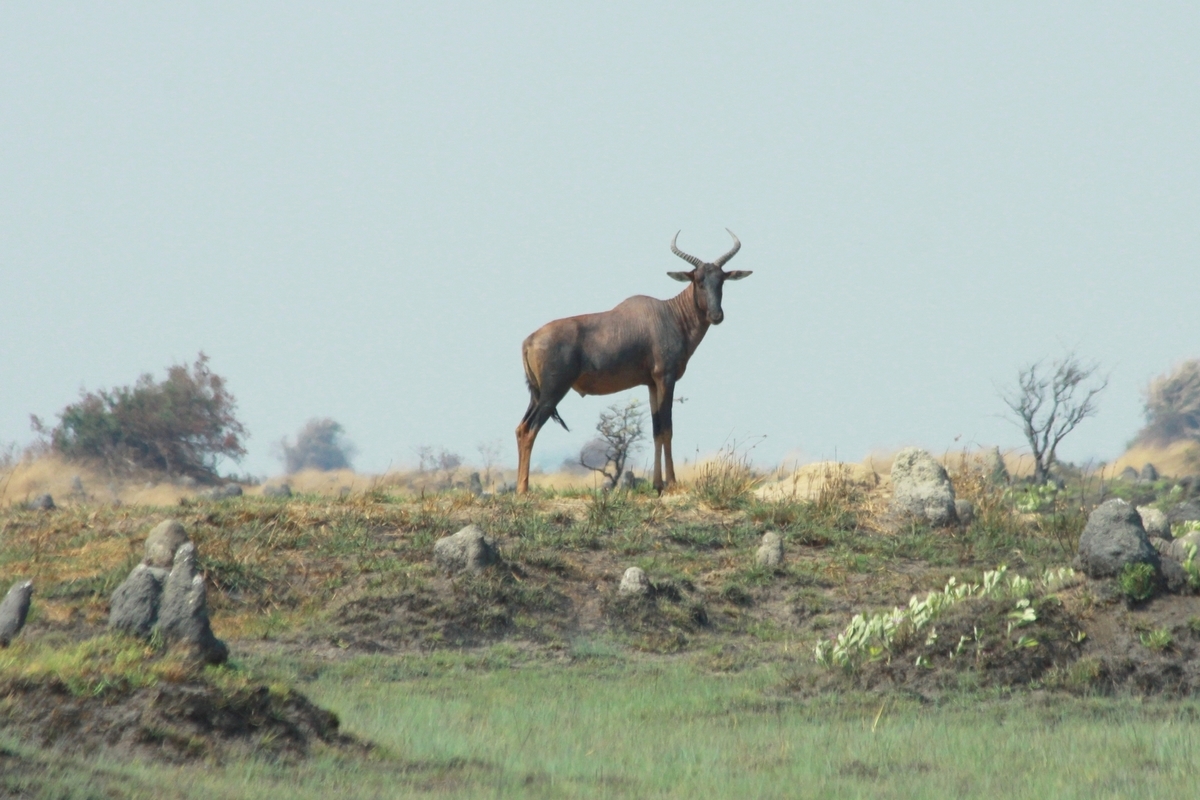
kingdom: Animalia
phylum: Chordata
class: Mammalia
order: Artiodactyla
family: Bovidae
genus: Damaliscus
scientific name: Damaliscus lunatus
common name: Common tsessebe
